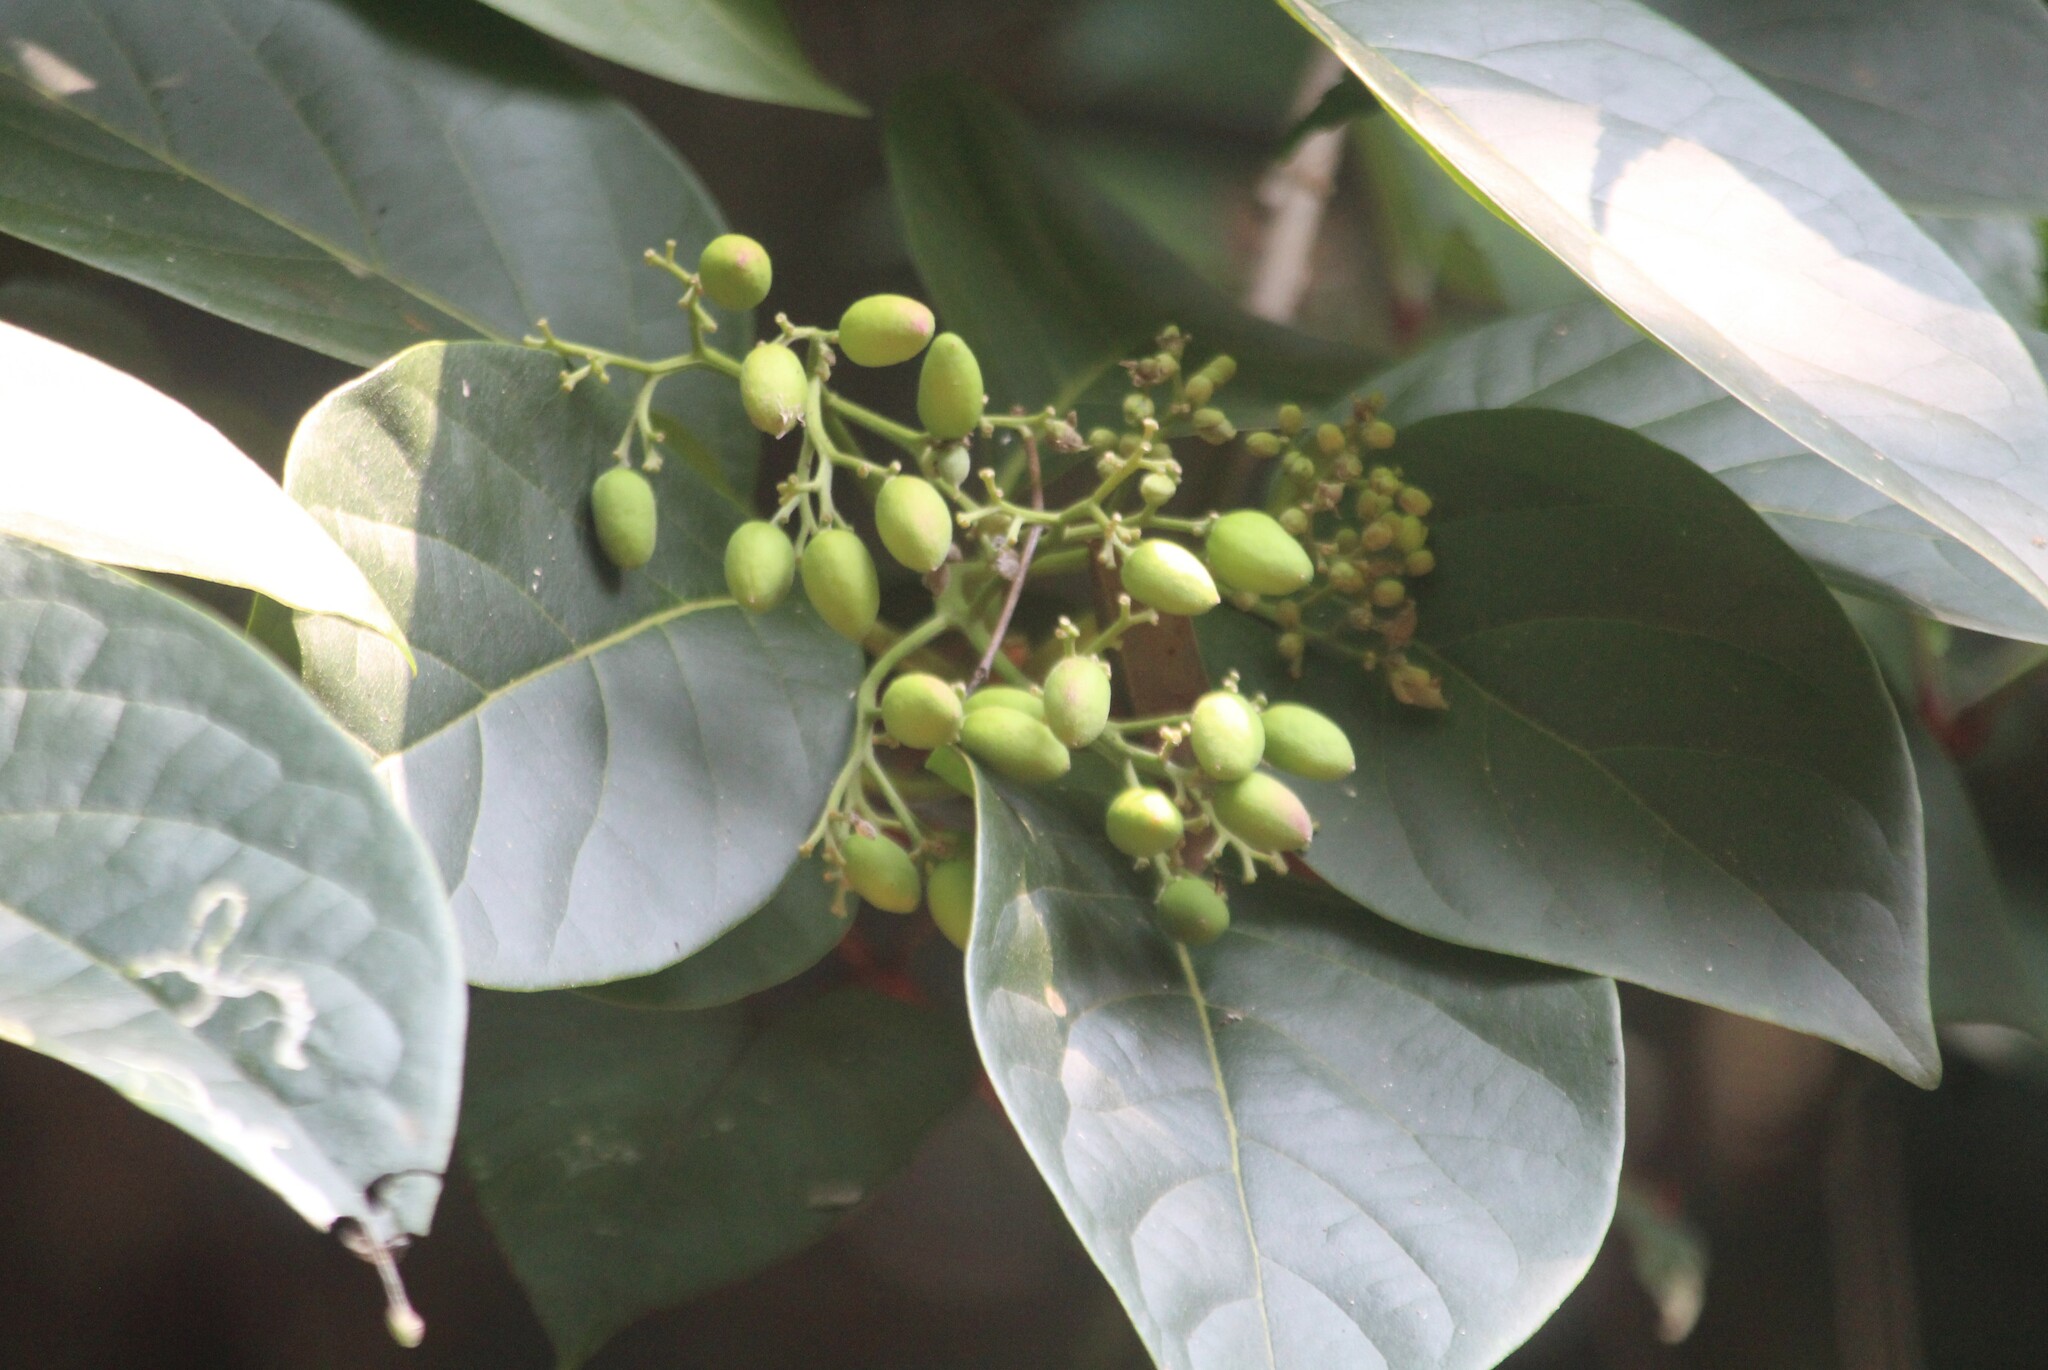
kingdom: Plantae
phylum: Tracheophyta
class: Magnoliopsida
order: Icacinales
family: Icacinaceae
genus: Nothapodytes
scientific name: Nothapodytes nimmoniana
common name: Nothapodytes
